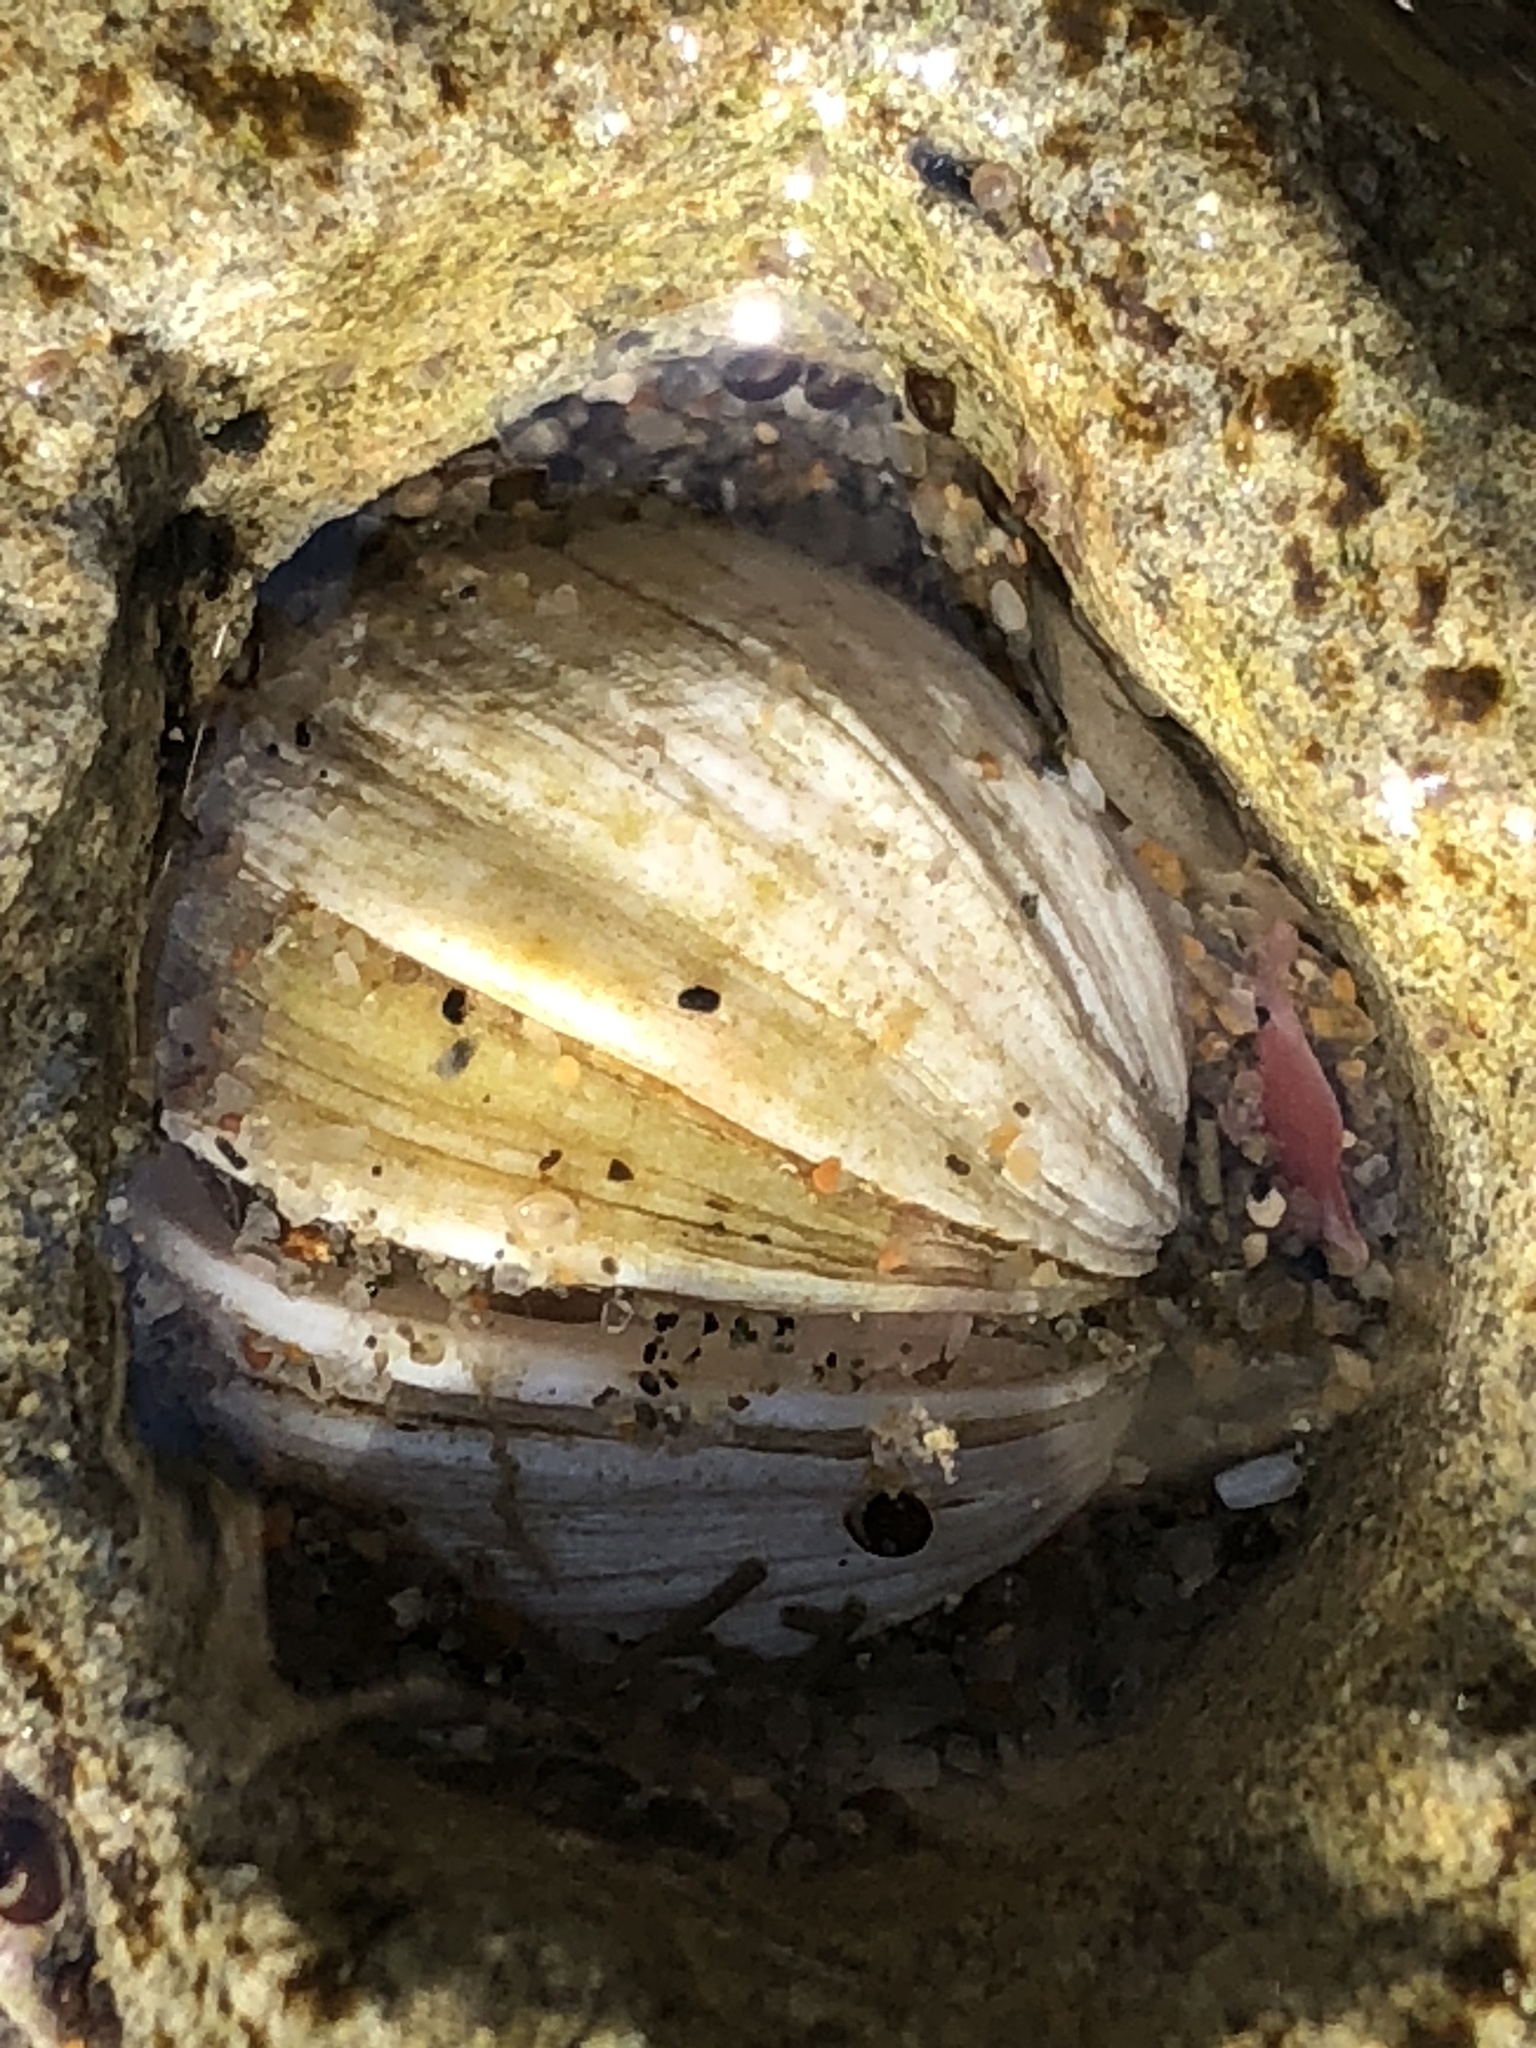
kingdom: Animalia
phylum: Mollusca
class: Bivalvia
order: Venerida
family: Veneridae
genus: Petricola
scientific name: Petricola carditoides
